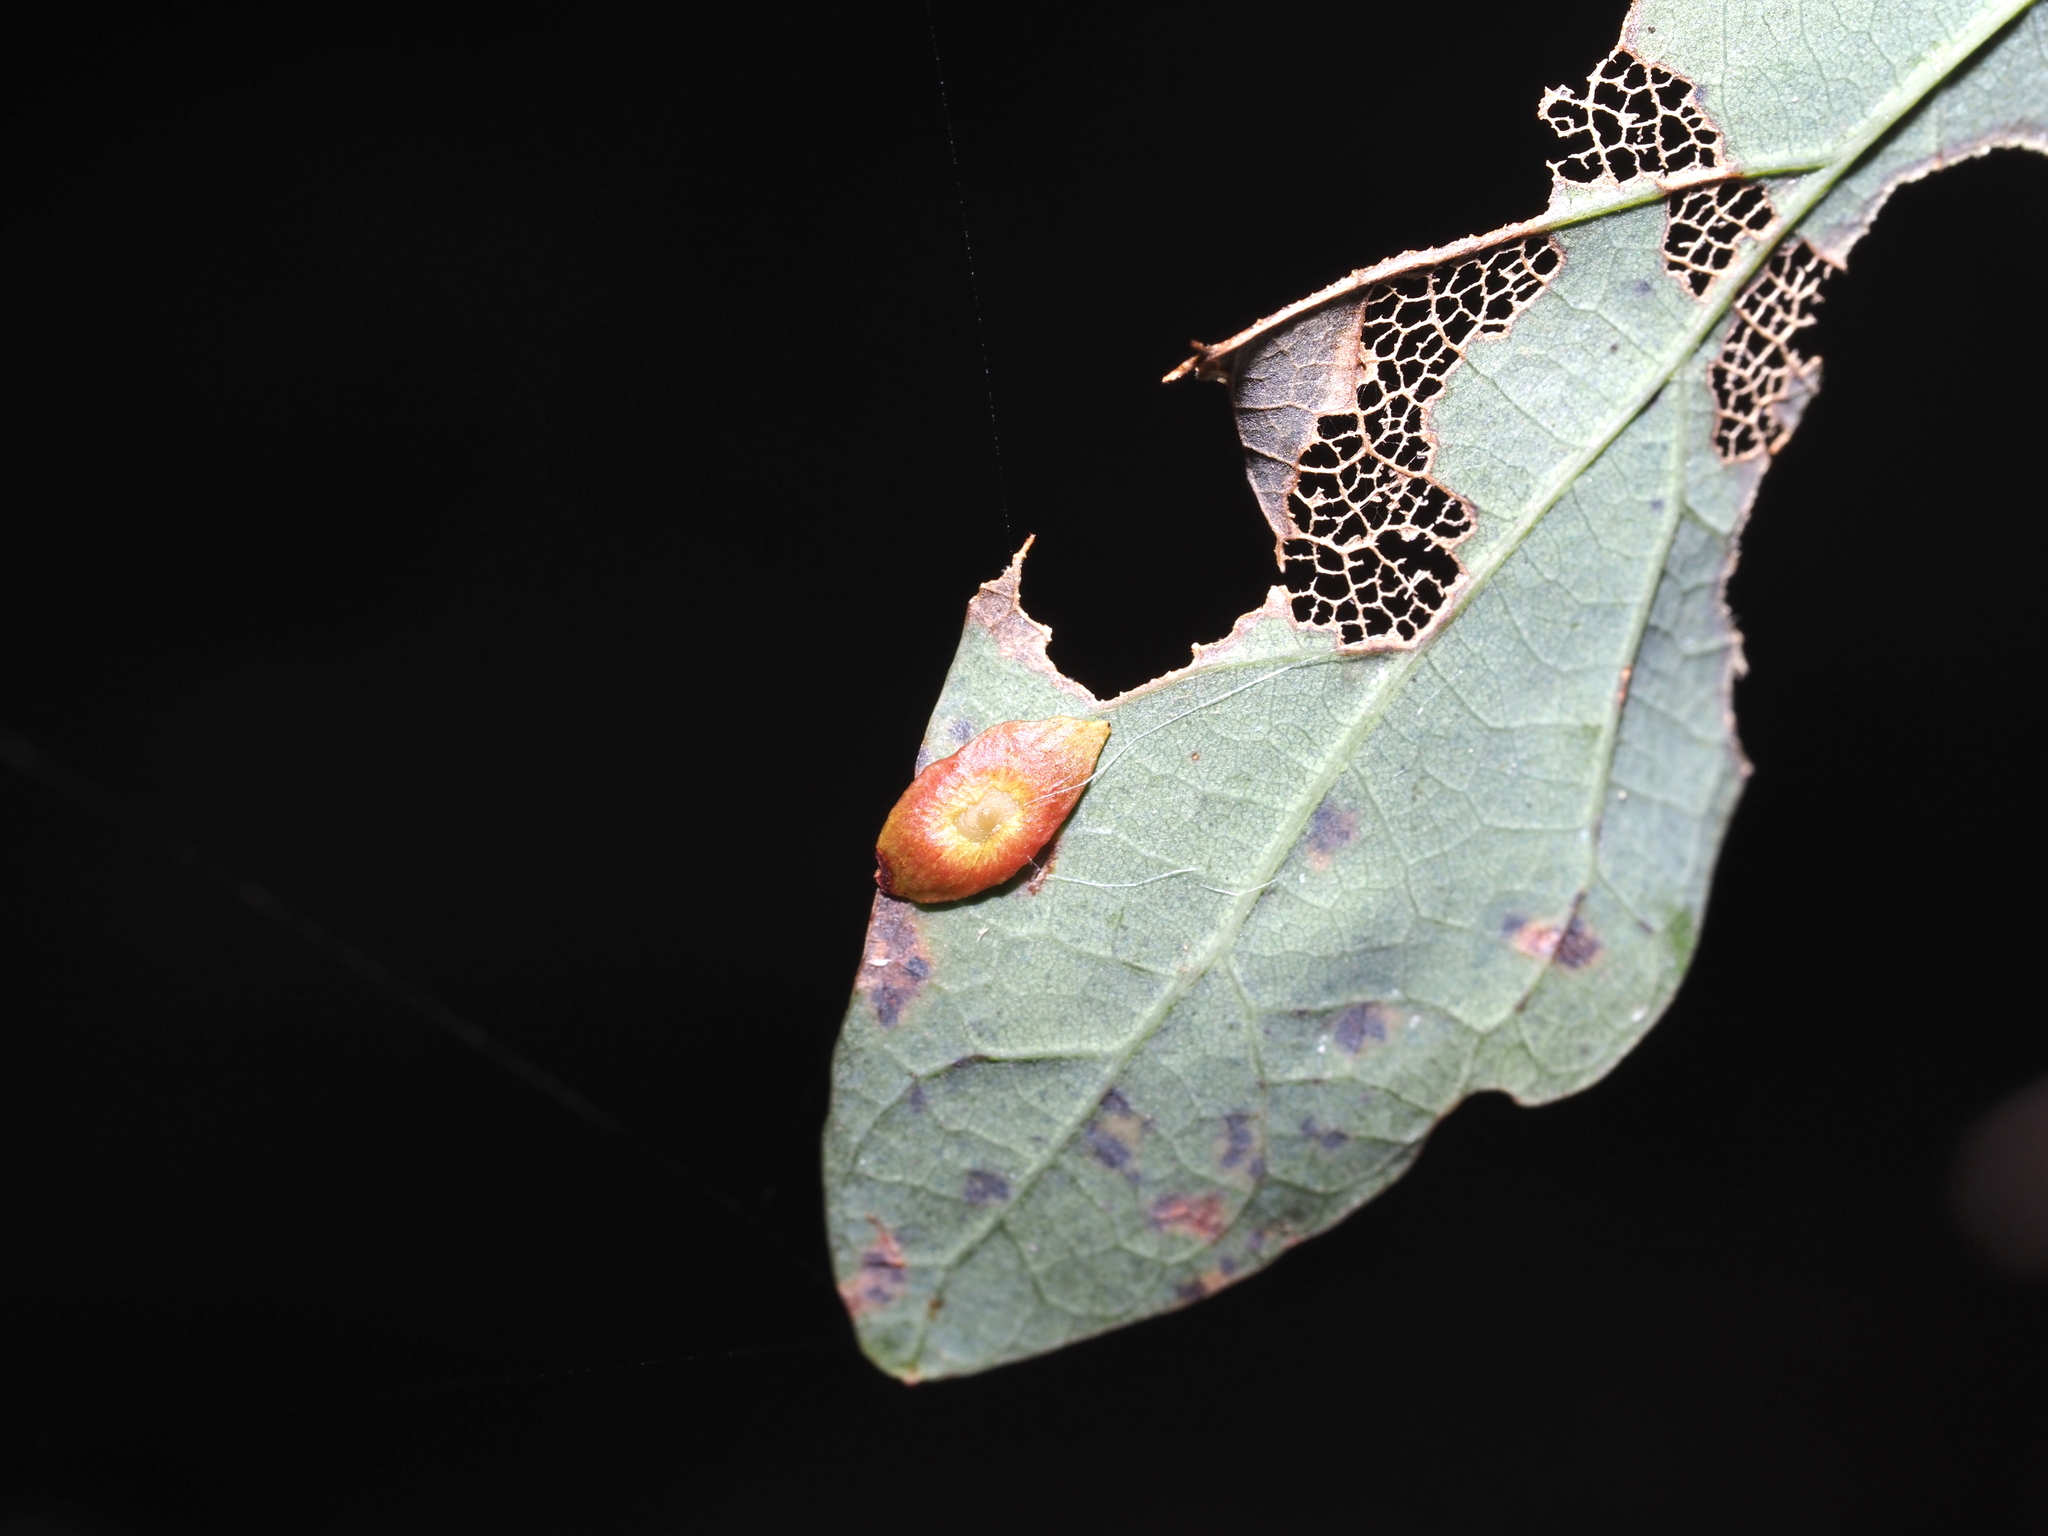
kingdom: Animalia
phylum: Arthropoda
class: Insecta
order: Hymenoptera
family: Cynipidae
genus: Phylloteras
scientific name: Phylloteras
